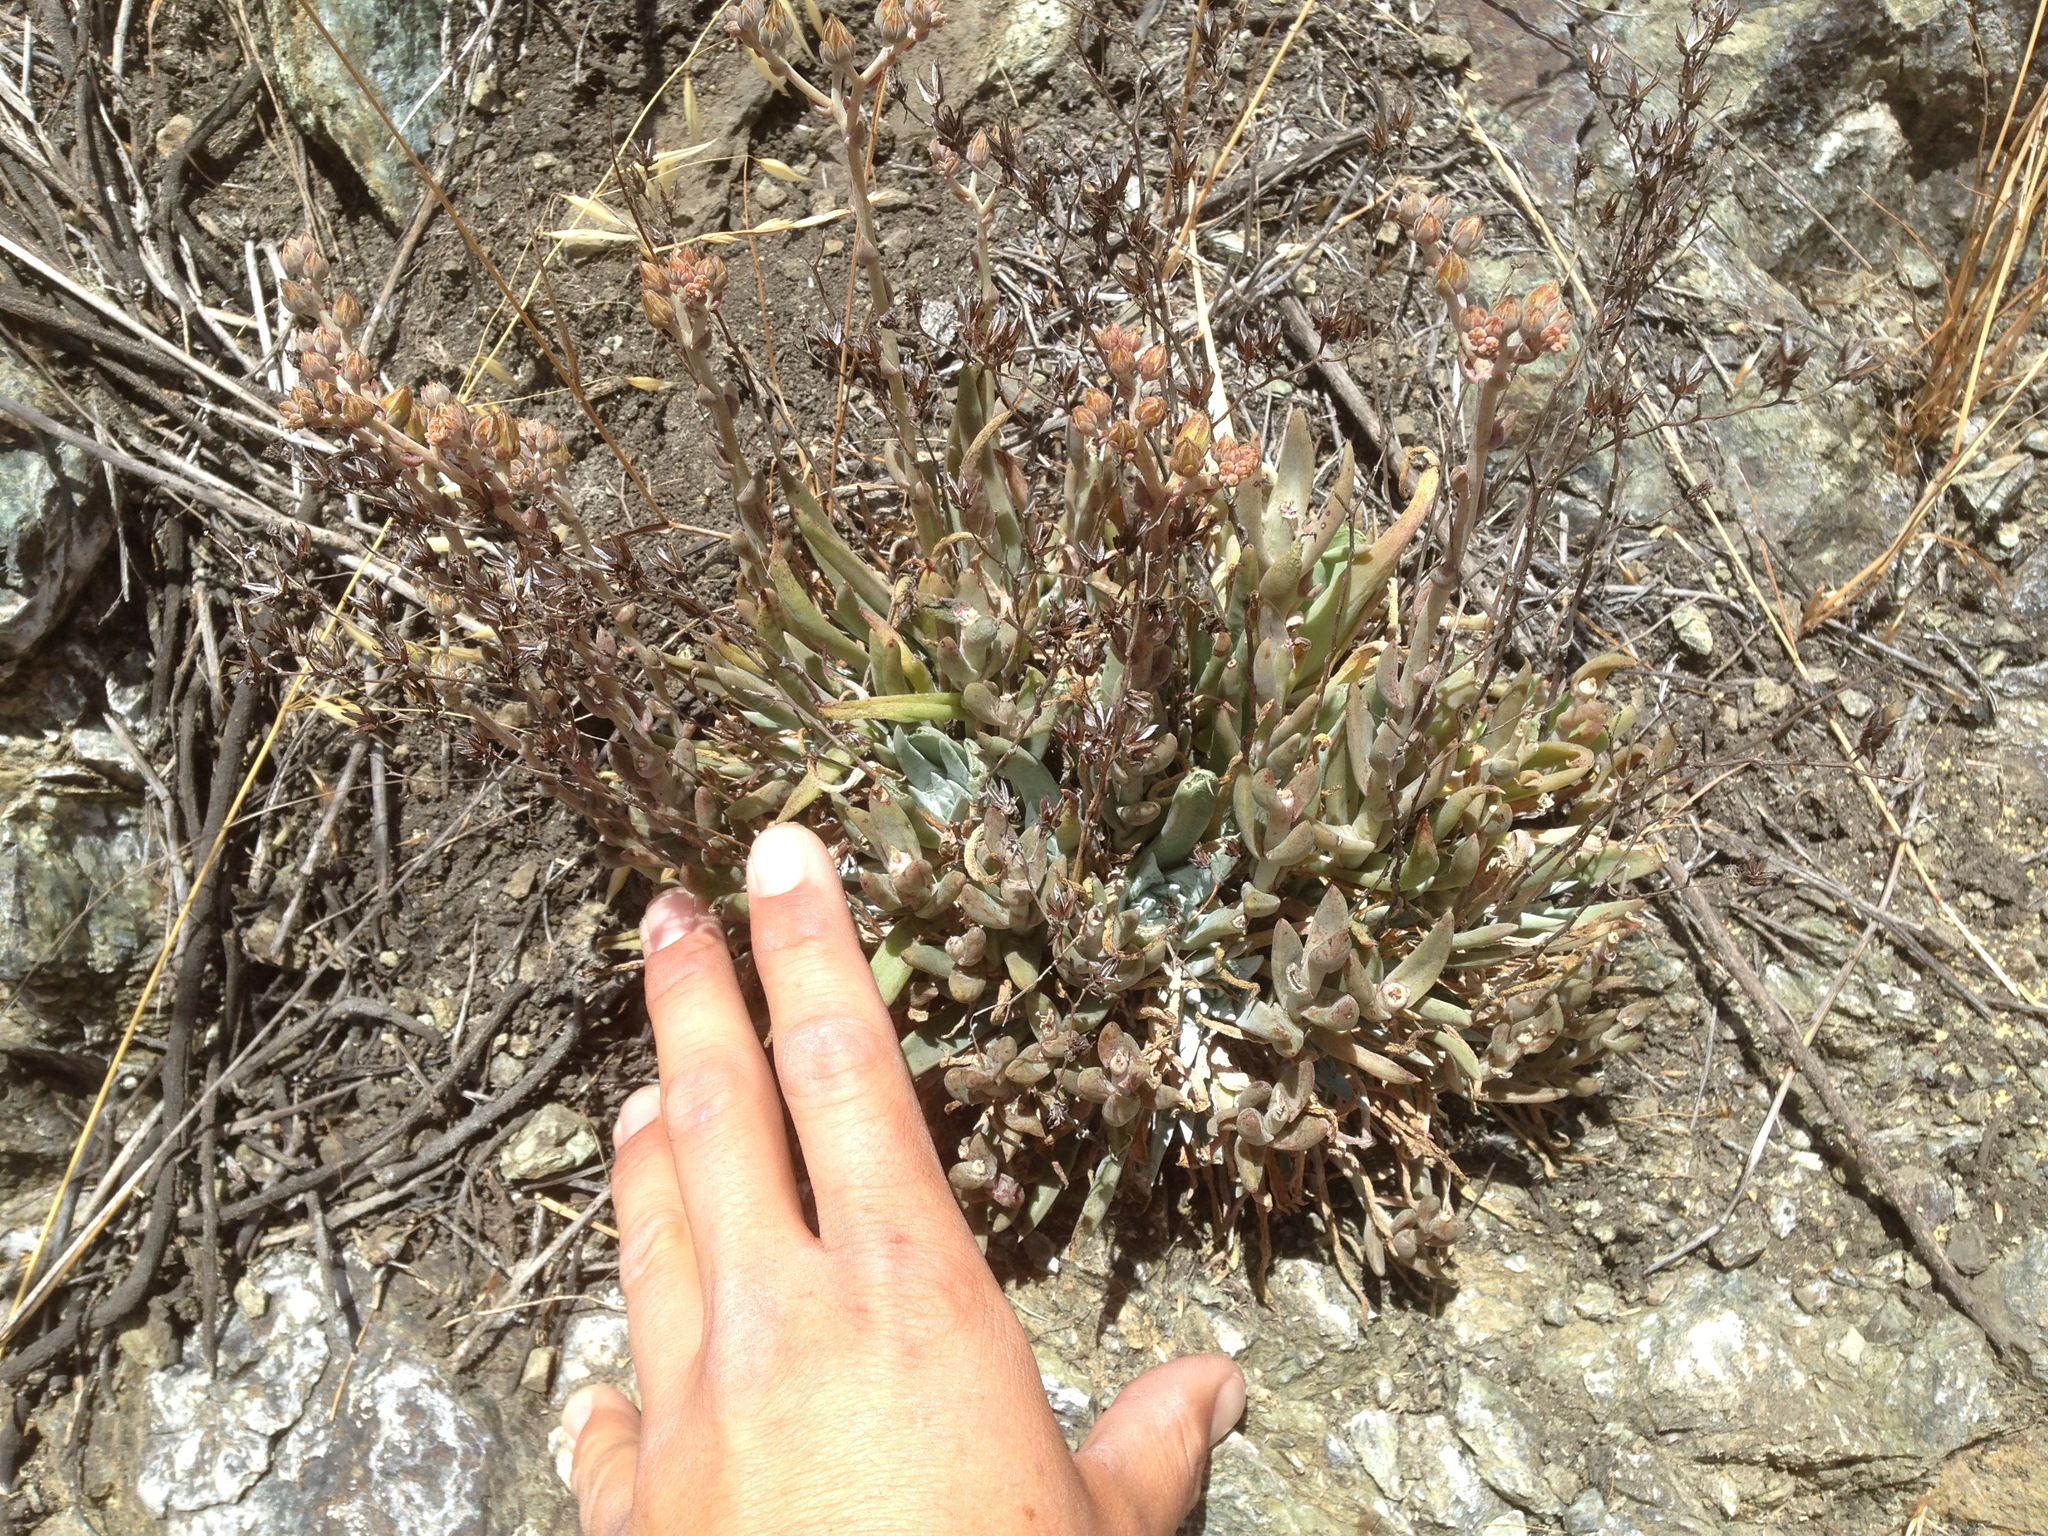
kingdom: Plantae
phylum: Tracheophyta
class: Magnoliopsida
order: Saxifragales
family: Crassulaceae
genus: Dudleya
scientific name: Dudleya abramsii
